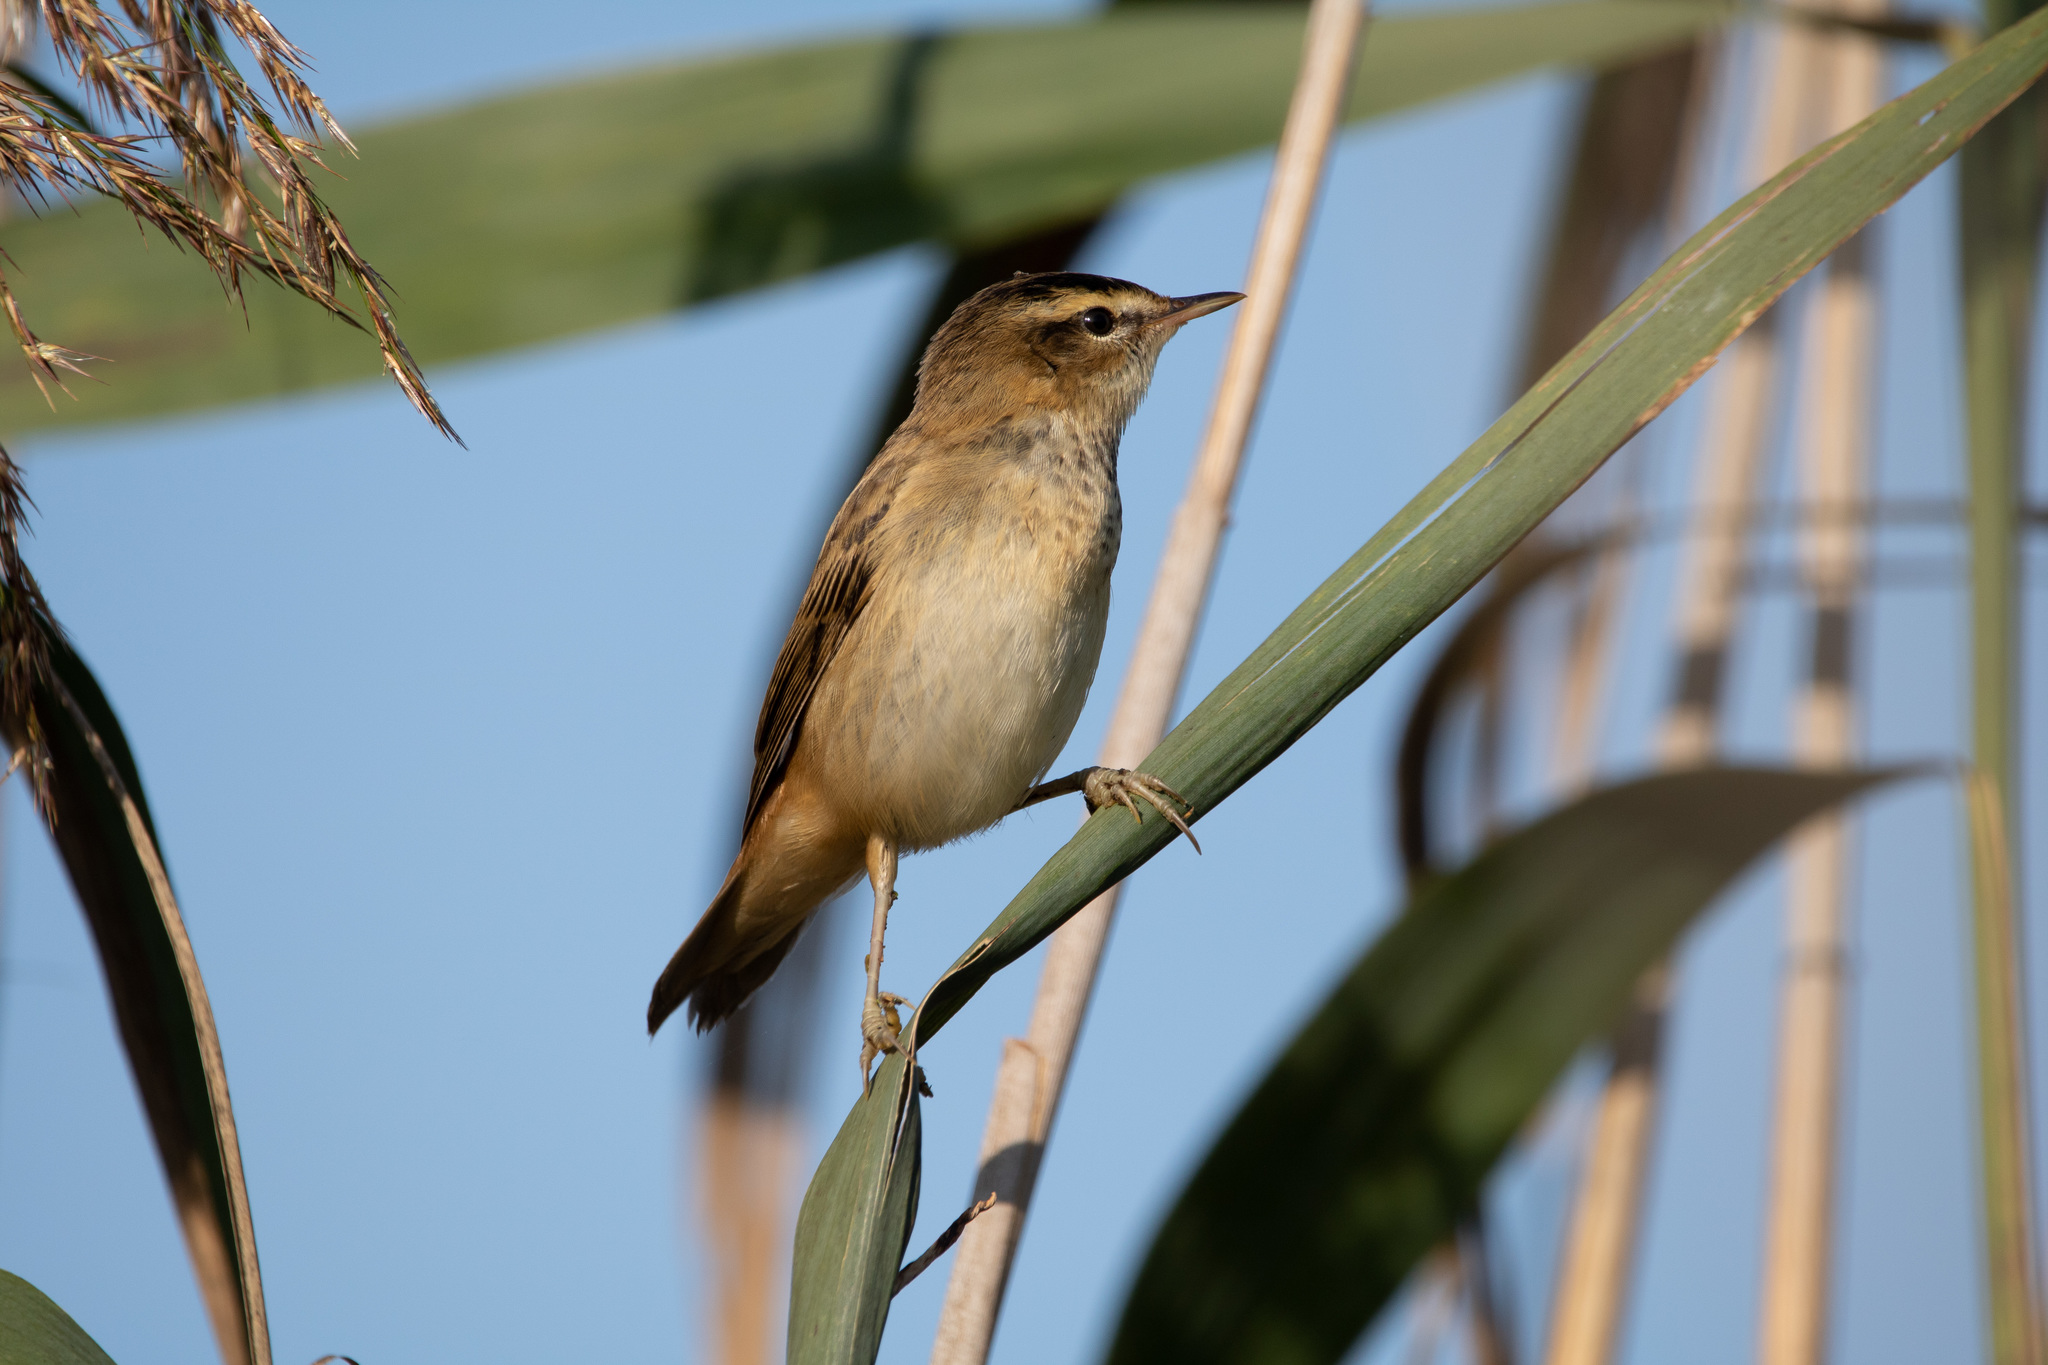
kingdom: Animalia
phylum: Chordata
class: Aves
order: Passeriformes
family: Acrocephalidae
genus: Acrocephalus
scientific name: Acrocephalus schoenobaenus
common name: Sedge warbler
